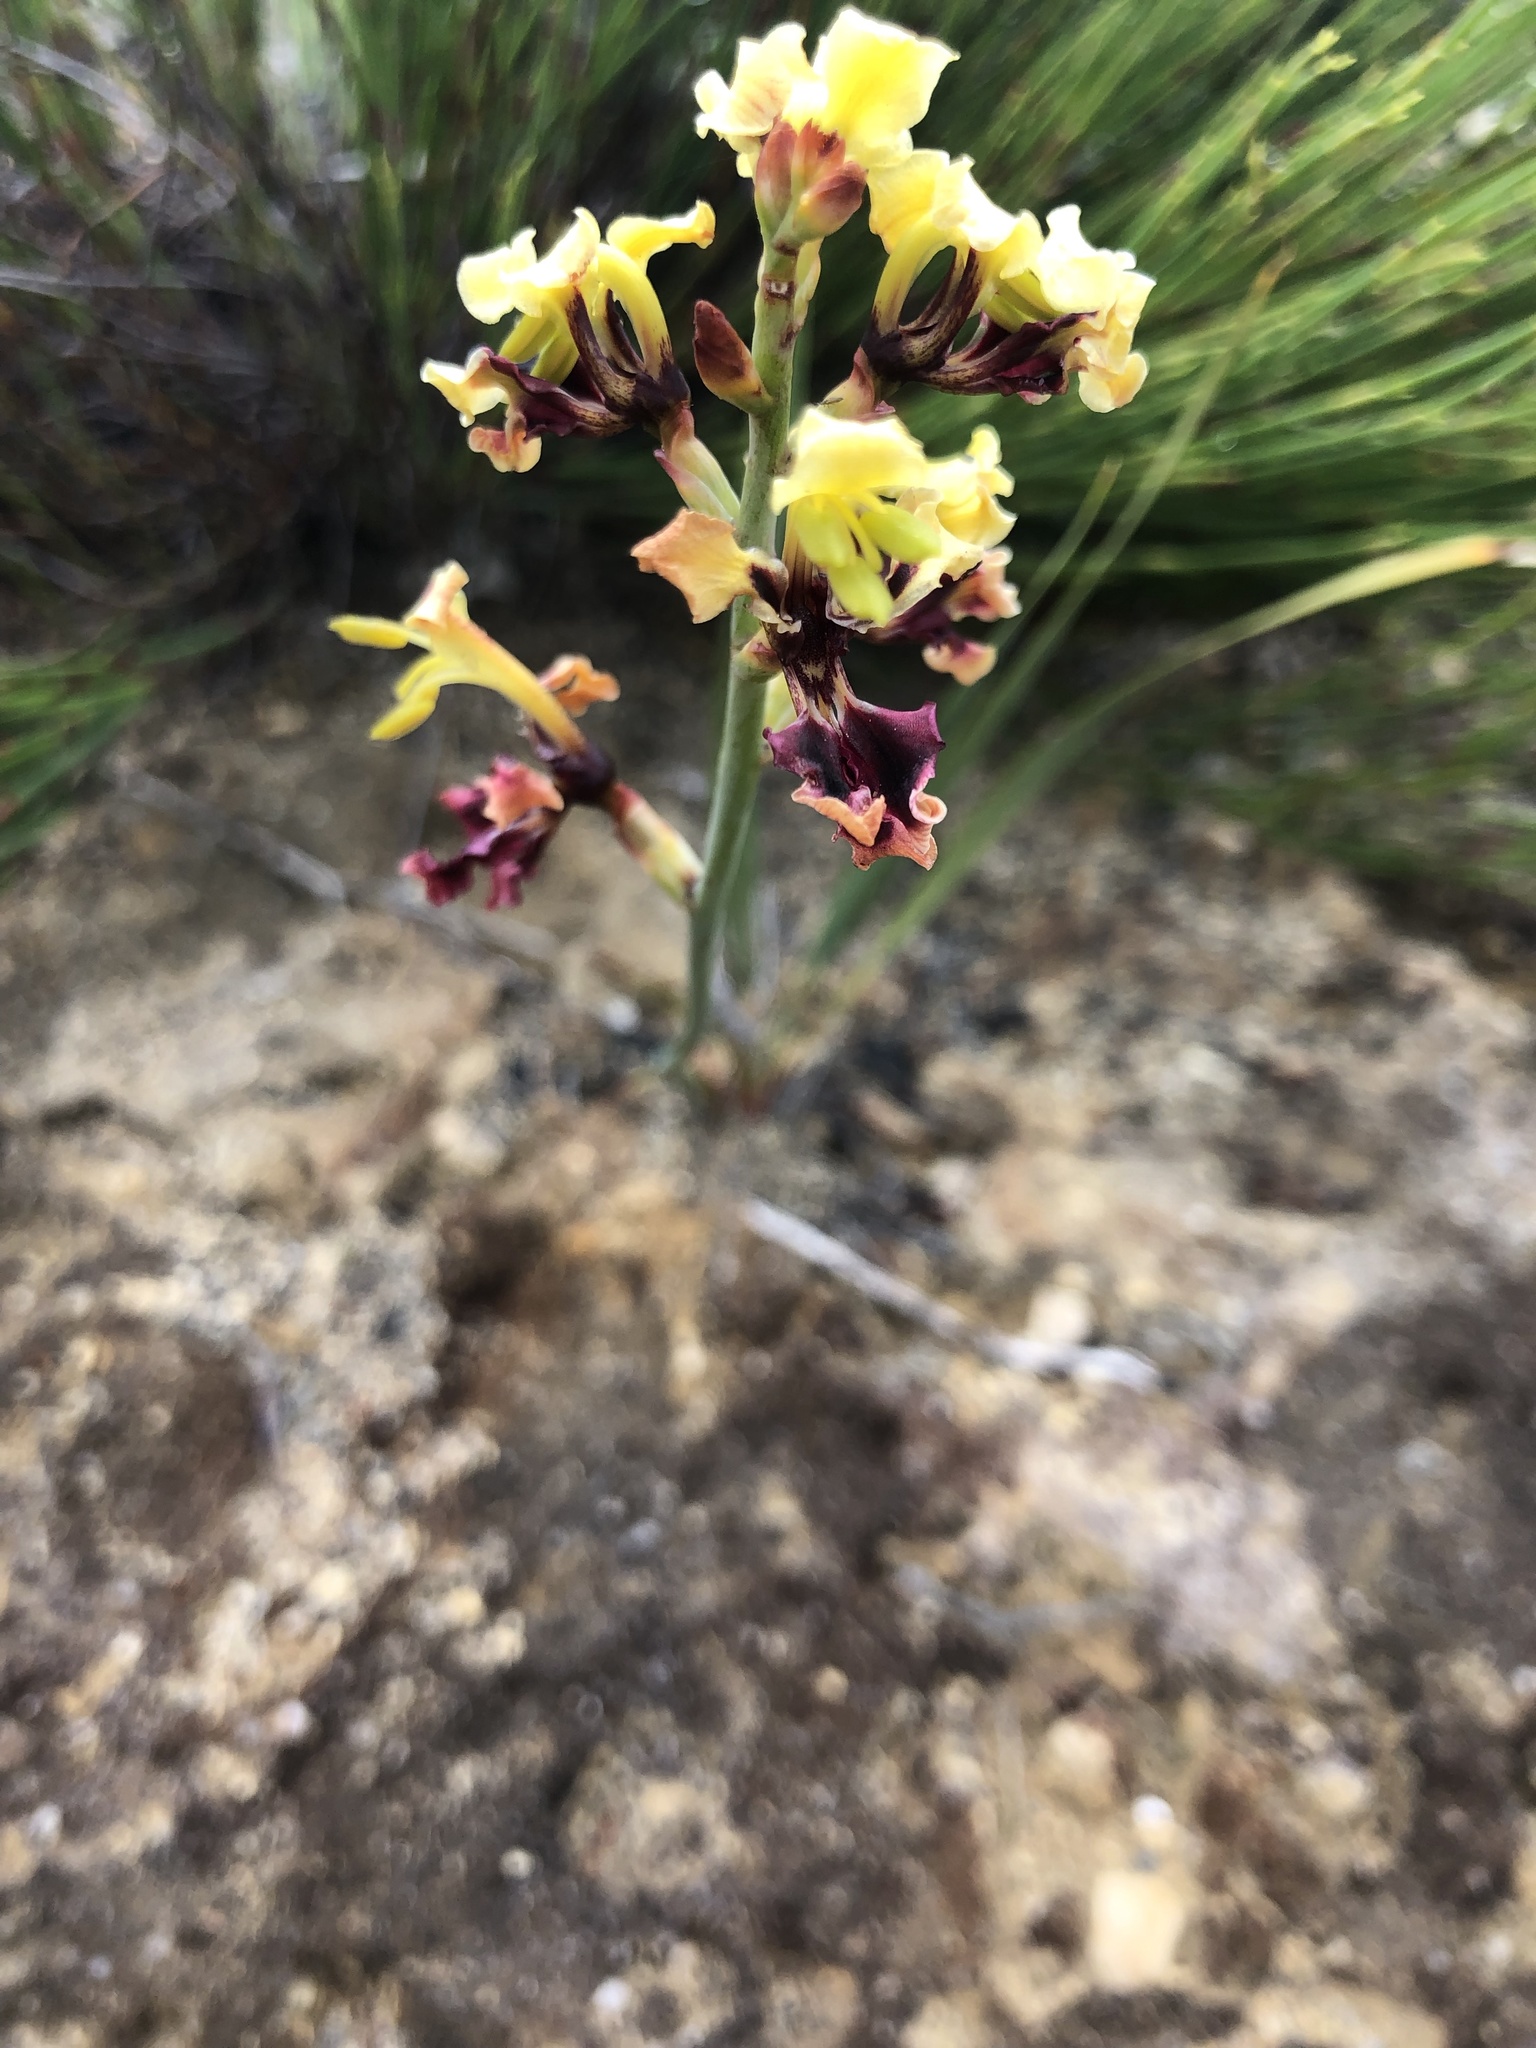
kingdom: Plantae
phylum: Tracheophyta
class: Liliopsida
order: Asparagales
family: Iridaceae
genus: Tritoniopsis
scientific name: Tritoniopsis parviflora
